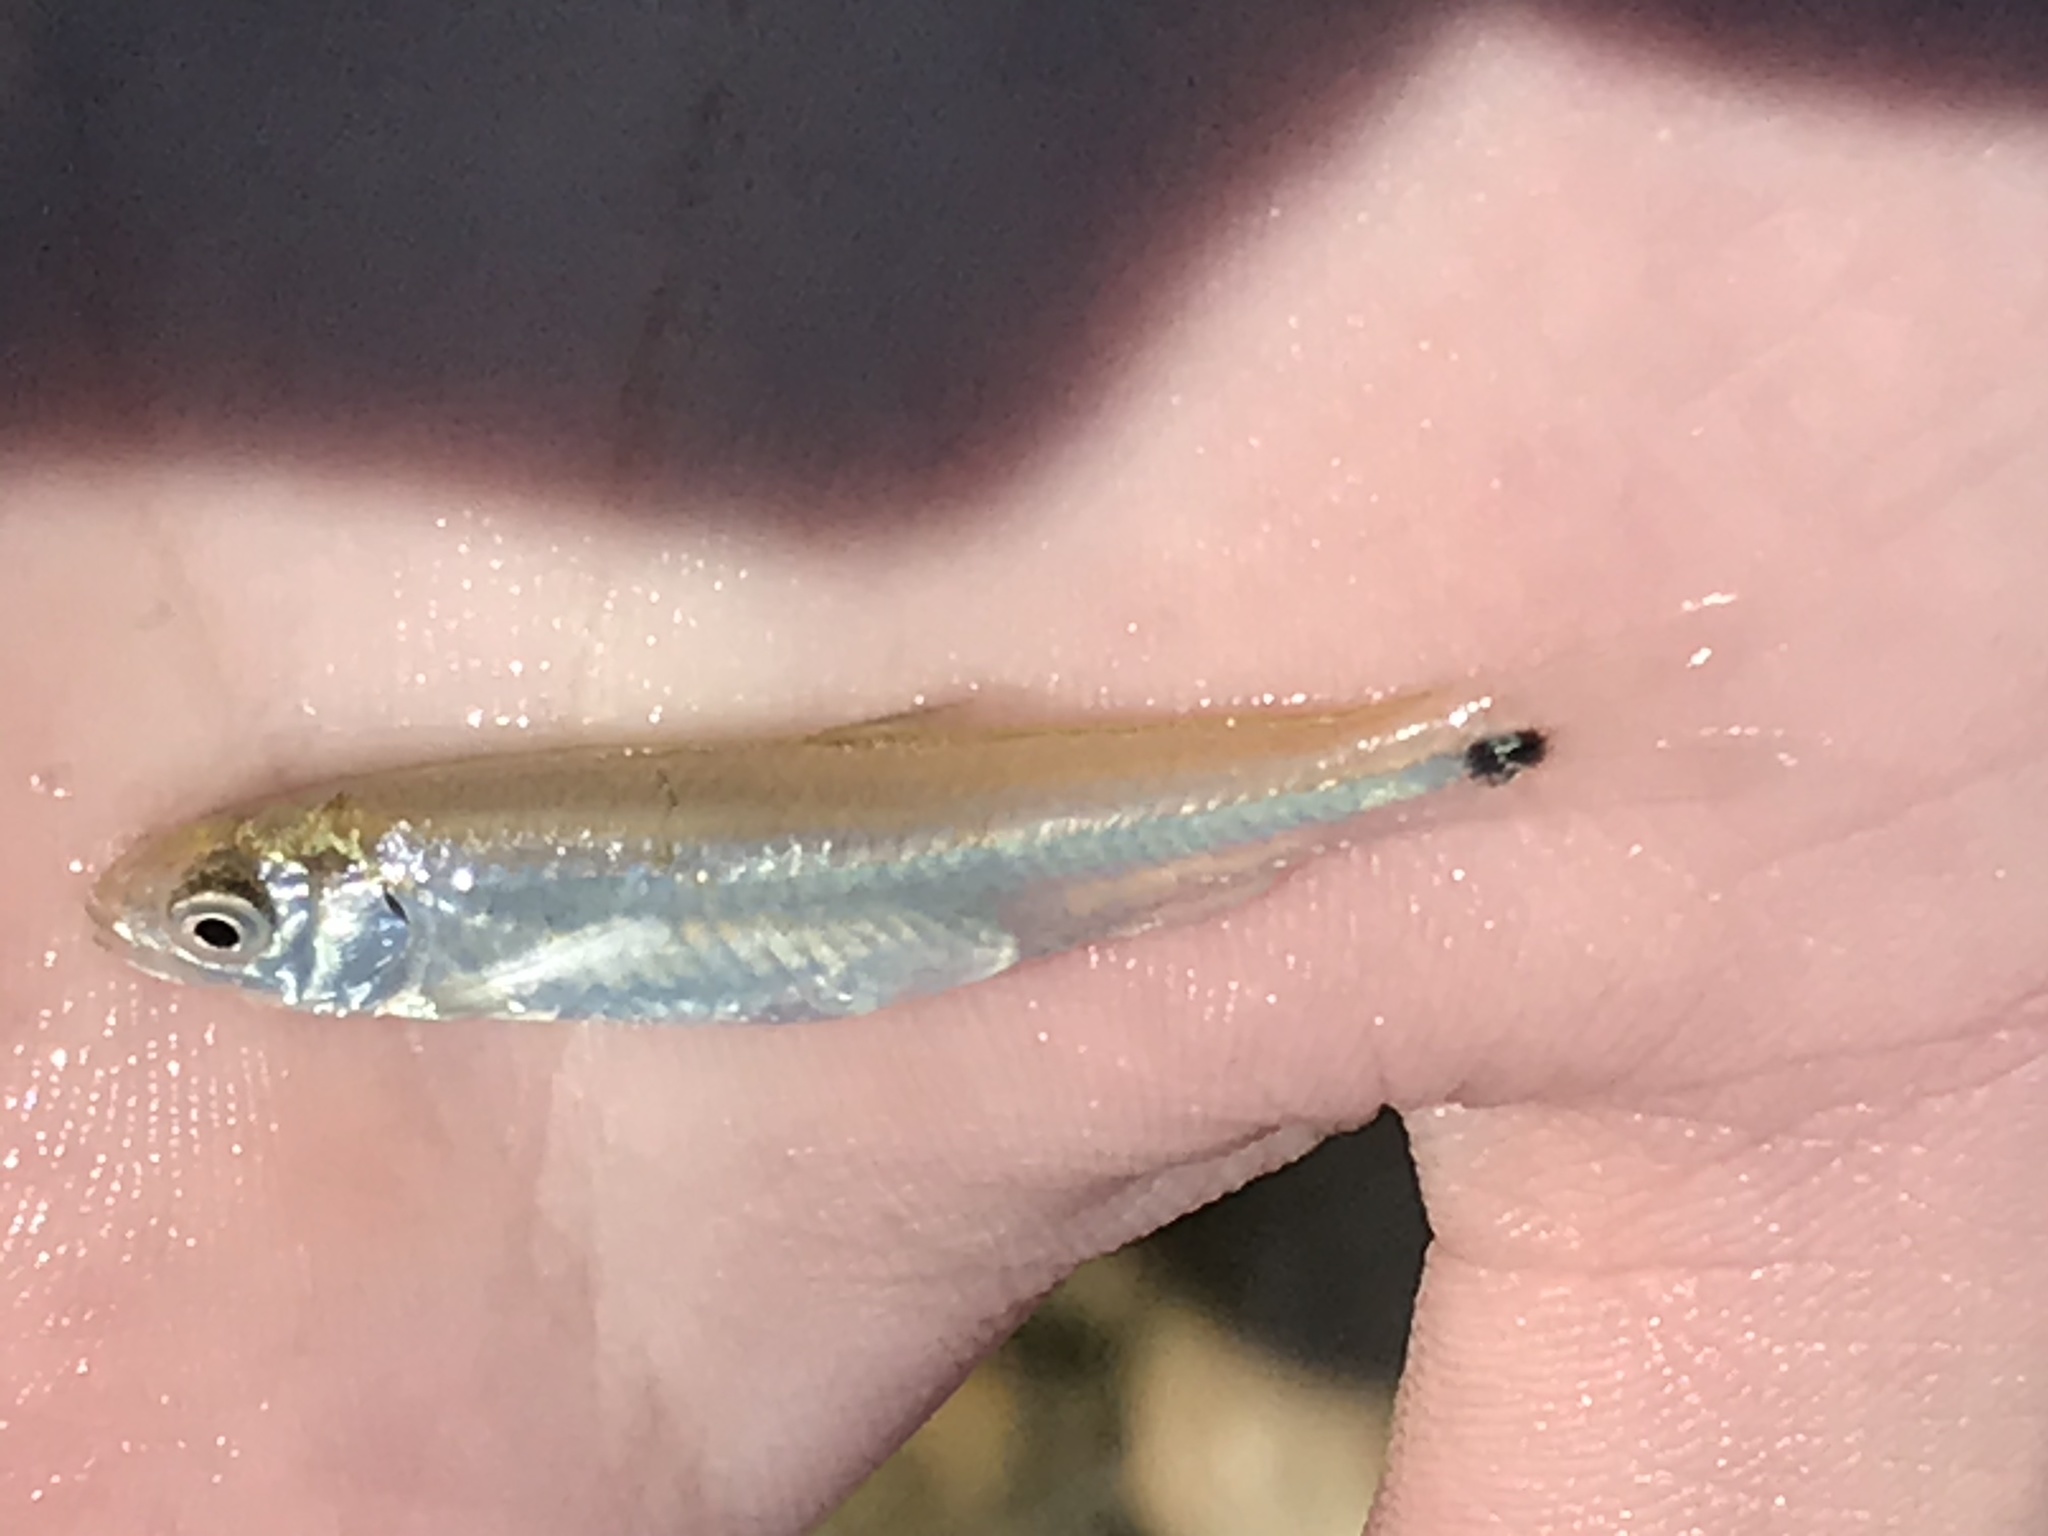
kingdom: Animalia
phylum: Chordata
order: Cypriniformes
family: Cyprinidae
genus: Cyprinella
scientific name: Cyprinella venusta
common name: Blacktail shiner
